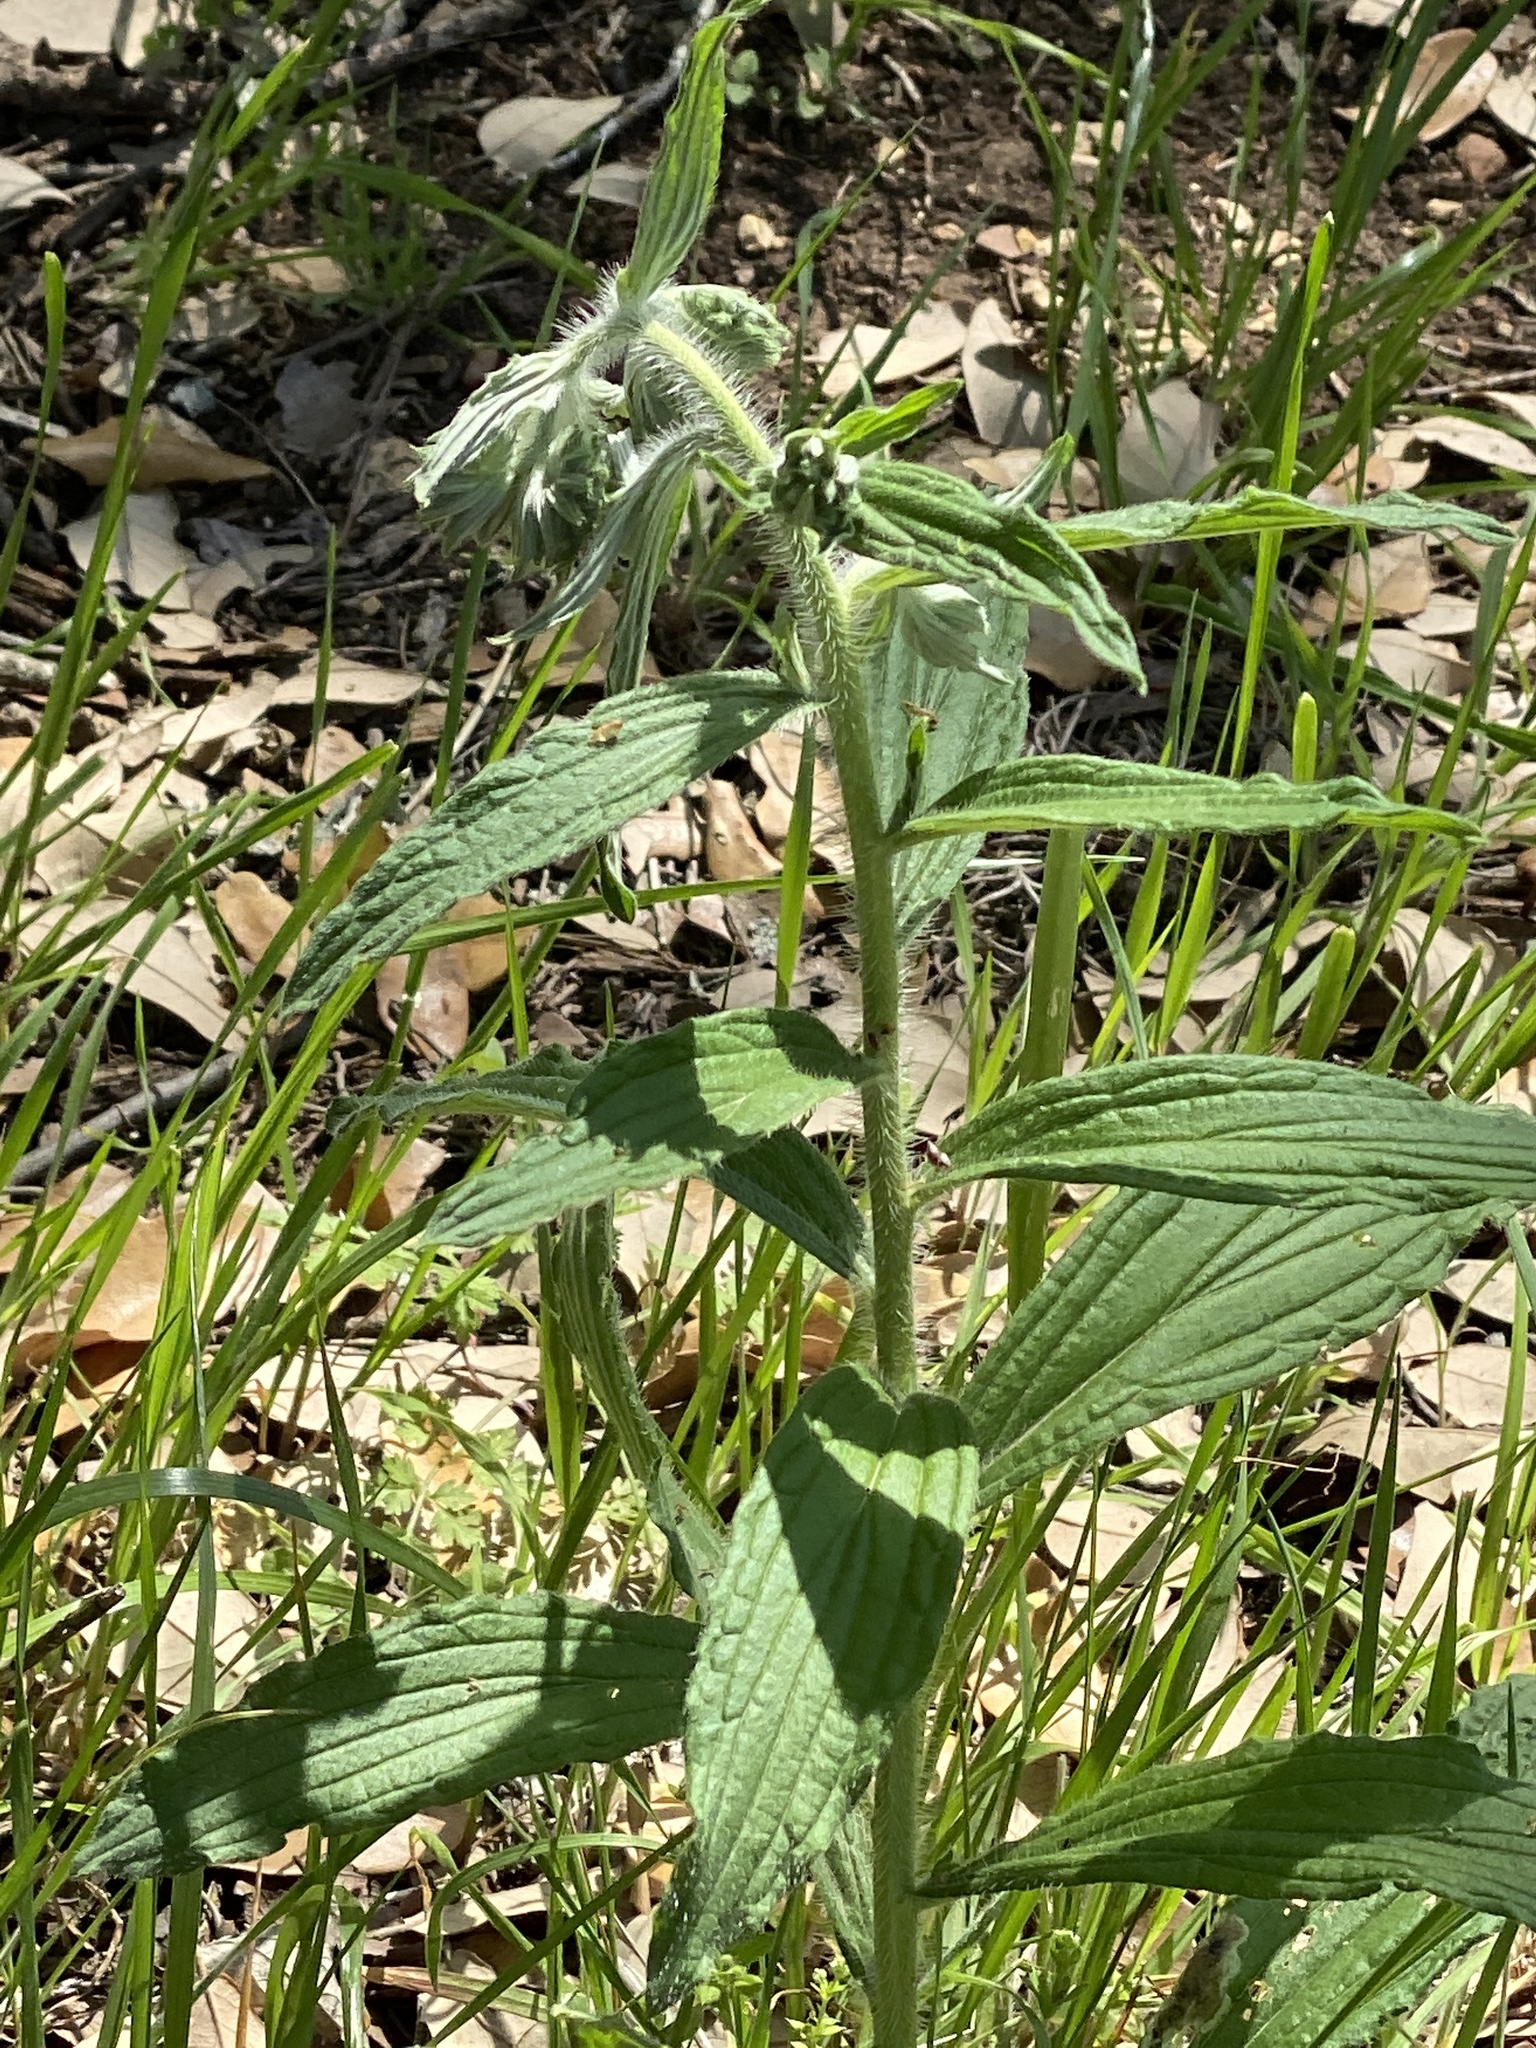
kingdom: Plantae
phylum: Tracheophyta
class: Magnoliopsida
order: Boraginales
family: Boraginaceae
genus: Lithospermum
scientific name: Lithospermum caroliniense
